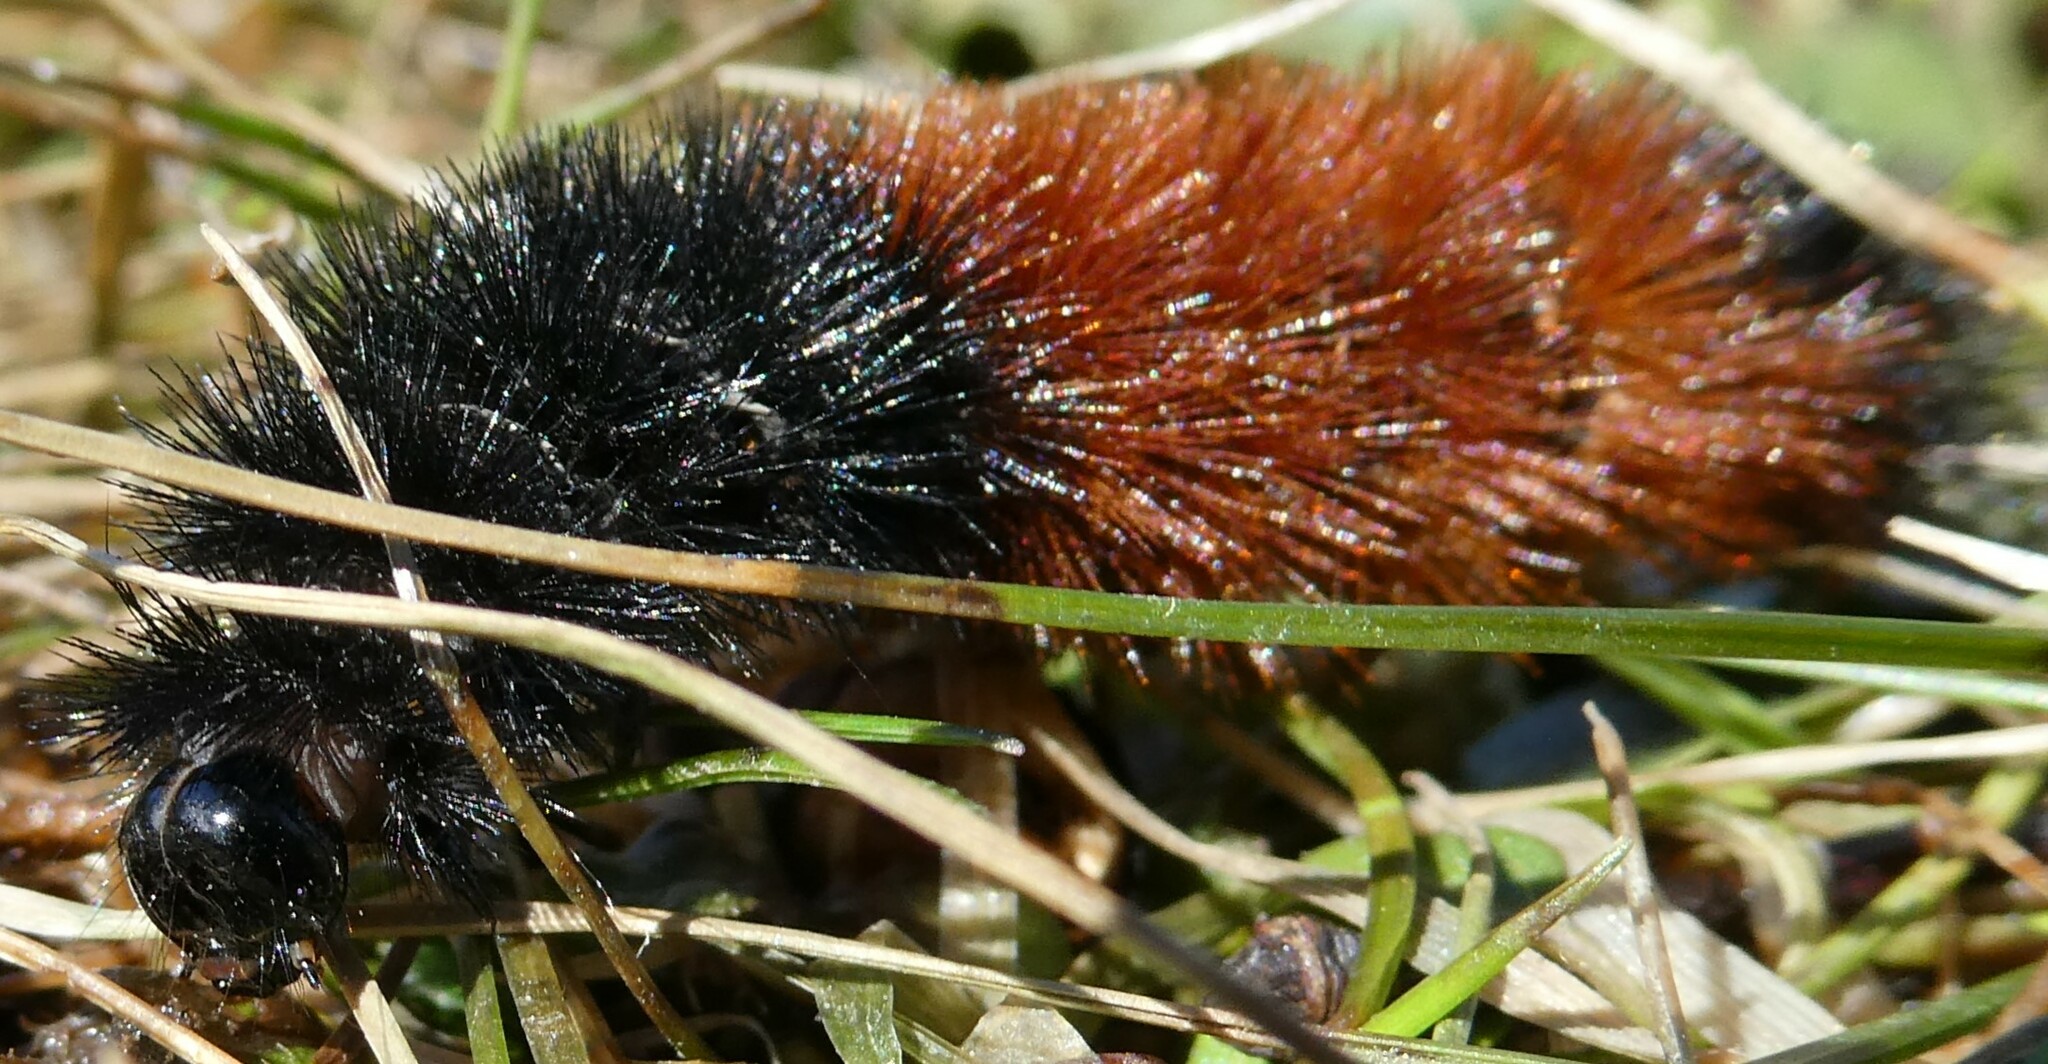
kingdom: Animalia
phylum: Arthropoda
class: Insecta
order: Lepidoptera
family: Erebidae
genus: Pyrrharctia
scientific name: Pyrrharctia isabella
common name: Isabella tiger moth
